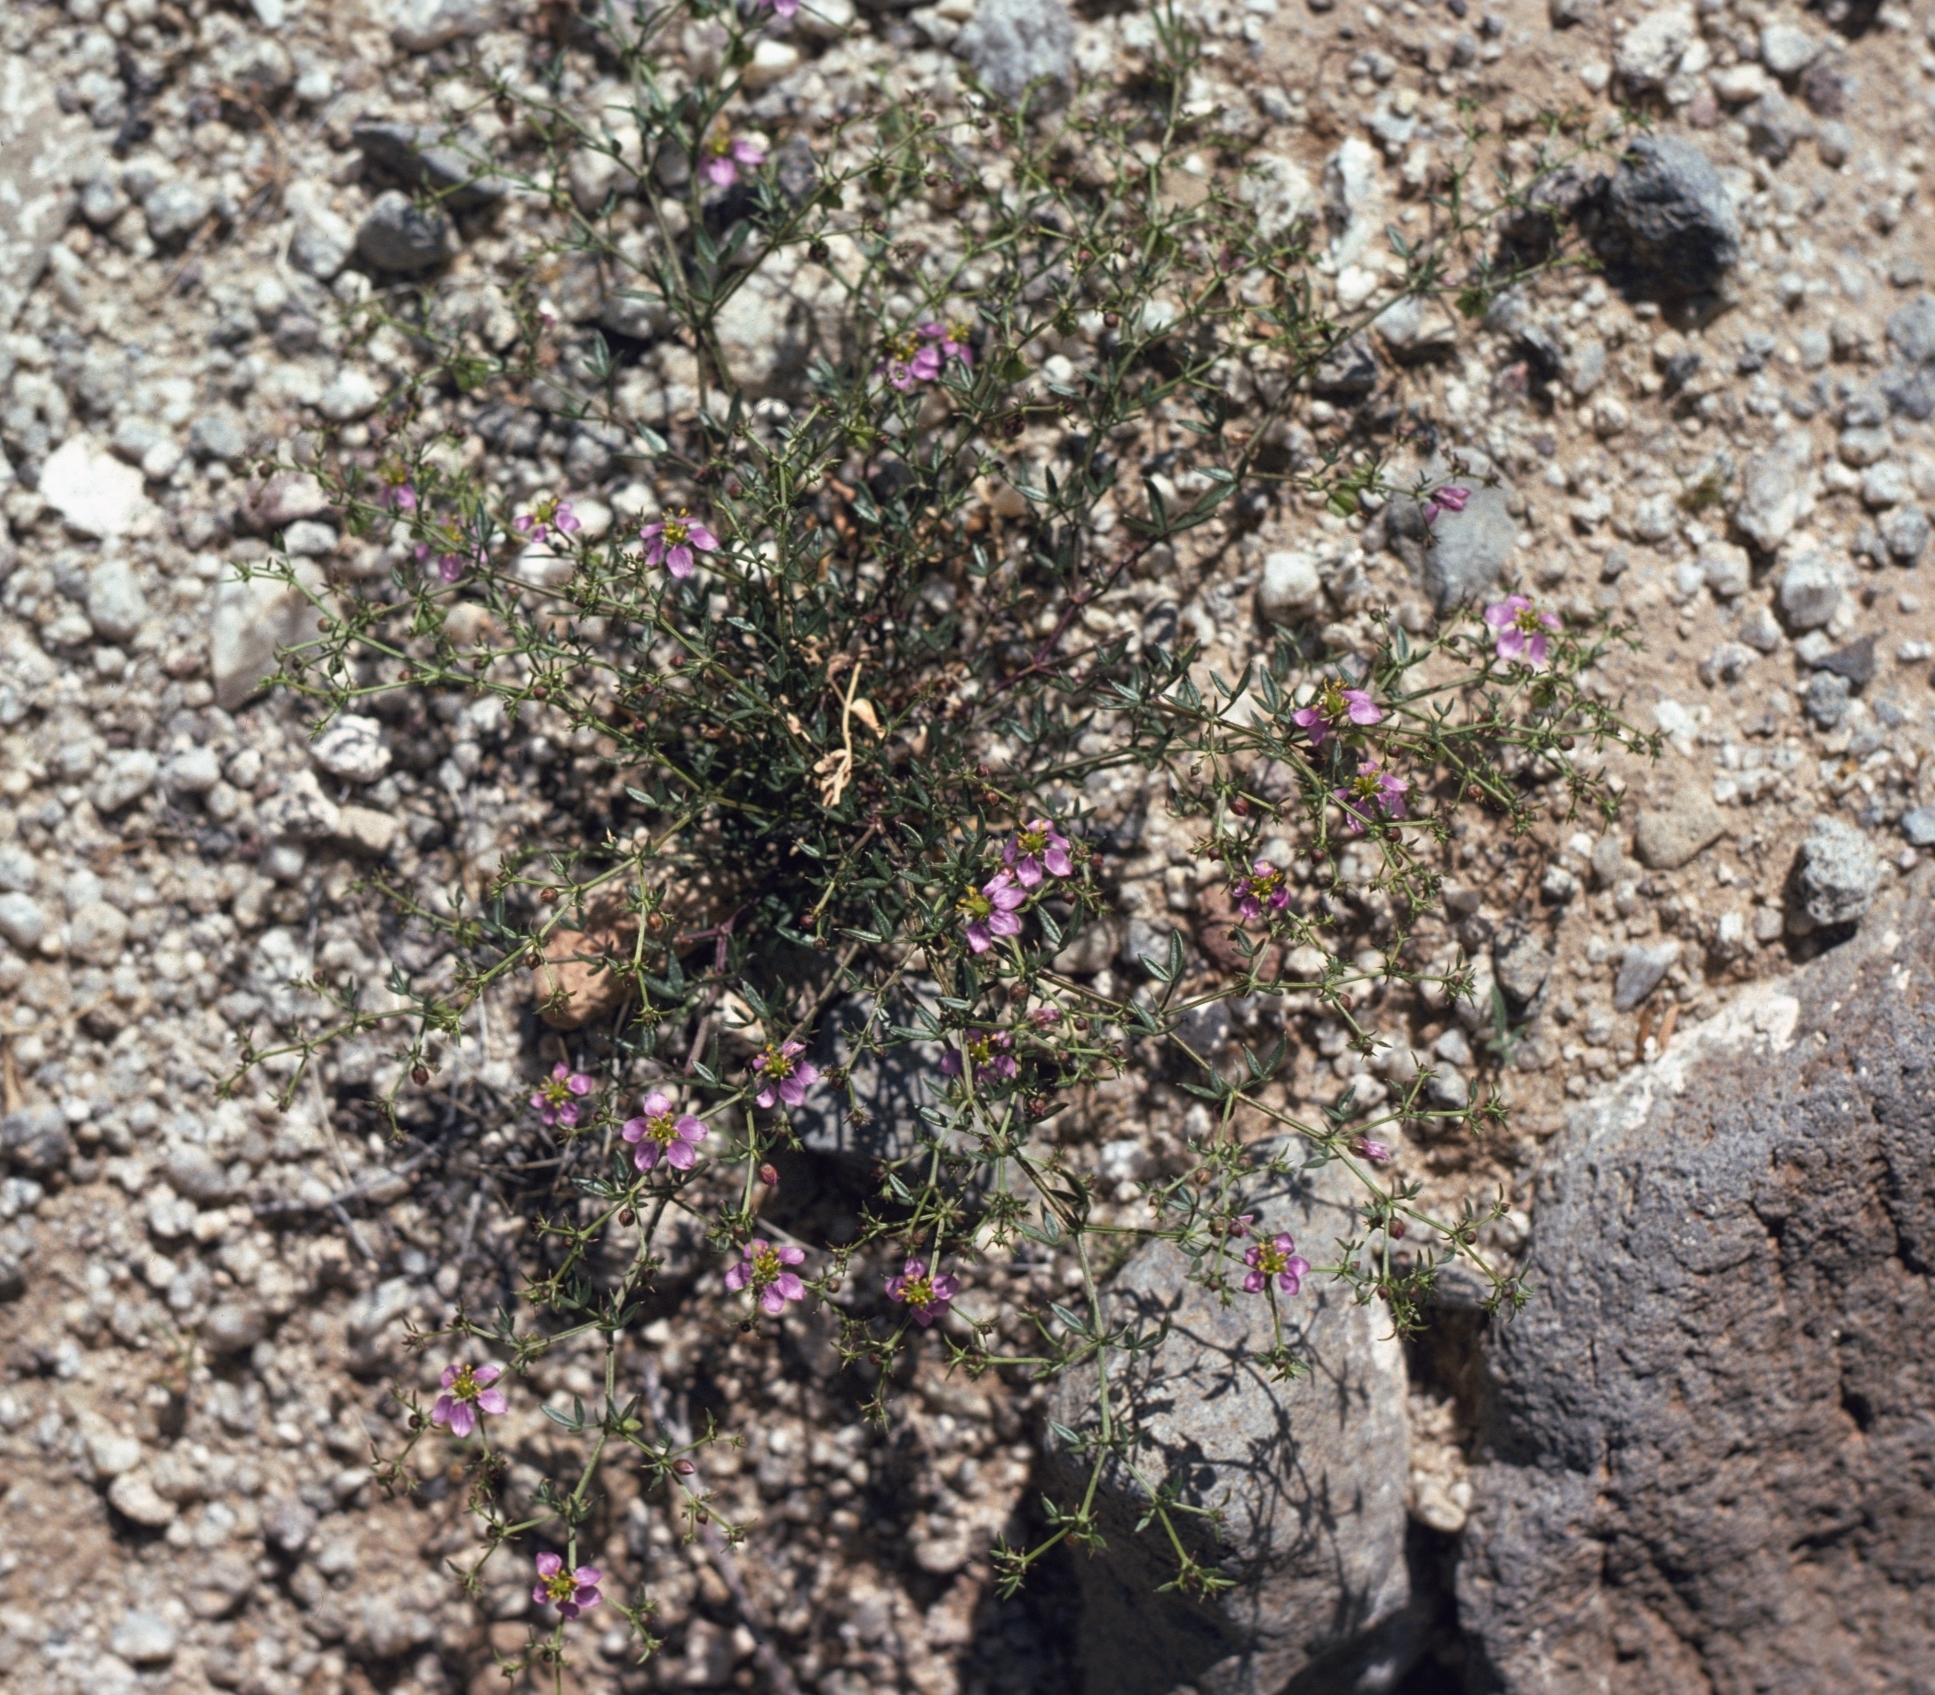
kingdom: Plantae
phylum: Tracheophyta
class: Magnoliopsida
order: Zygophyllales
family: Zygophyllaceae
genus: Fagonia
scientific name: Fagonia laevis
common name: California fagonbush
